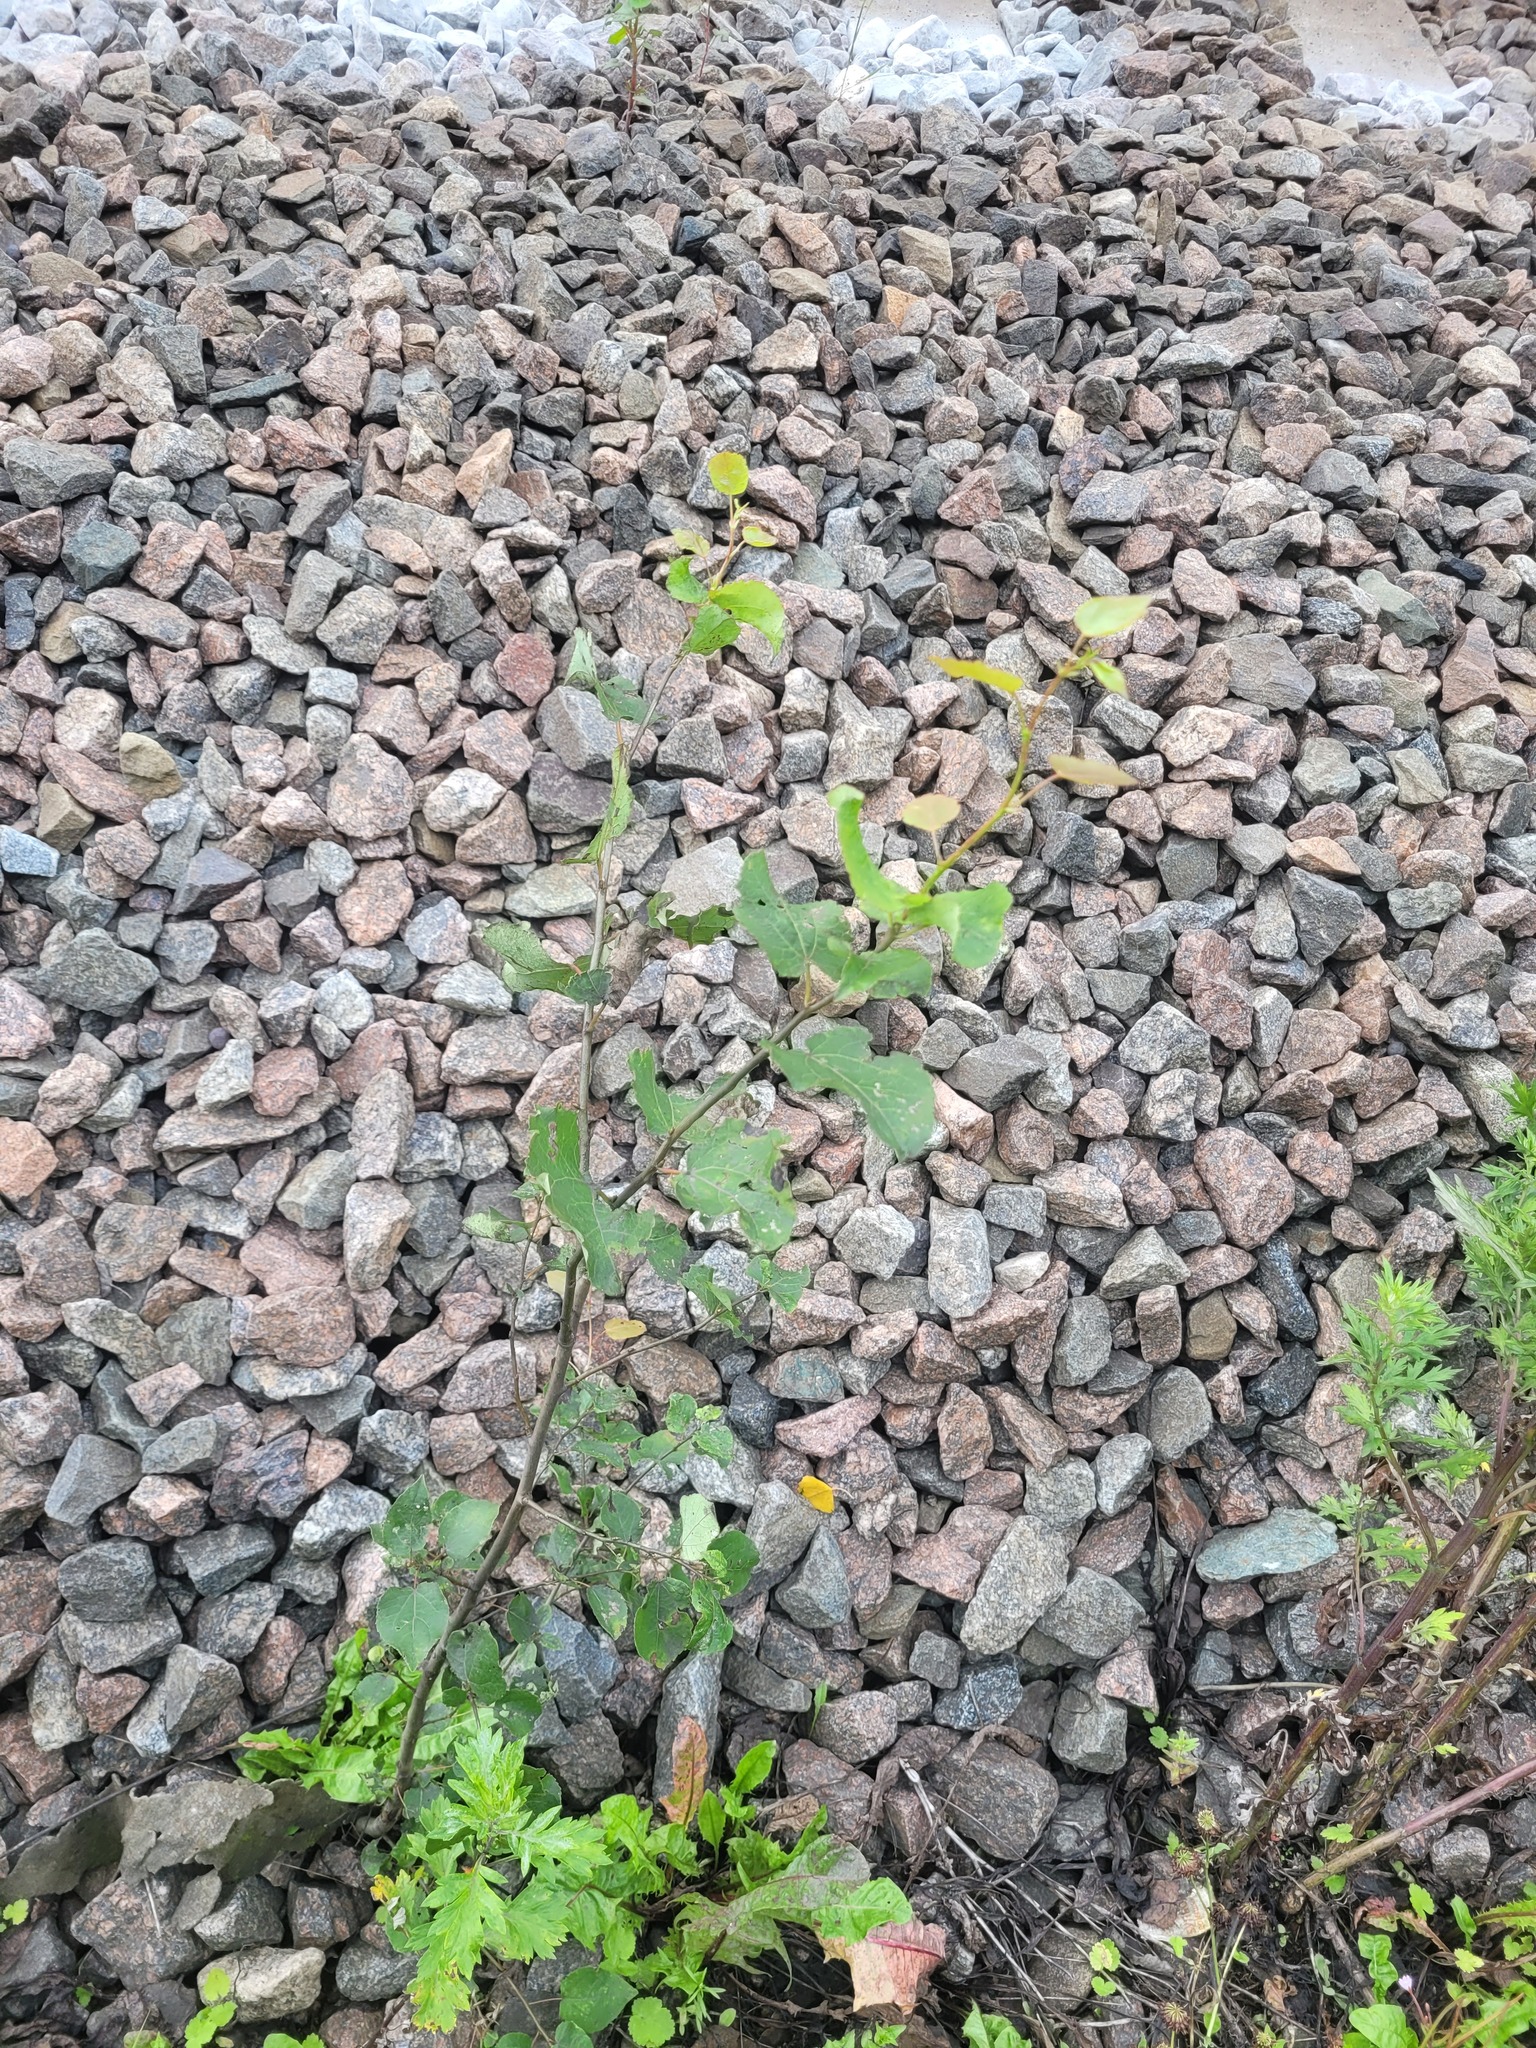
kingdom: Plantae
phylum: Tracheophyta
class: Magnoliopsida
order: Malpighiales
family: Salicaceae
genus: Populus
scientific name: Populus tremula
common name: European aspen
